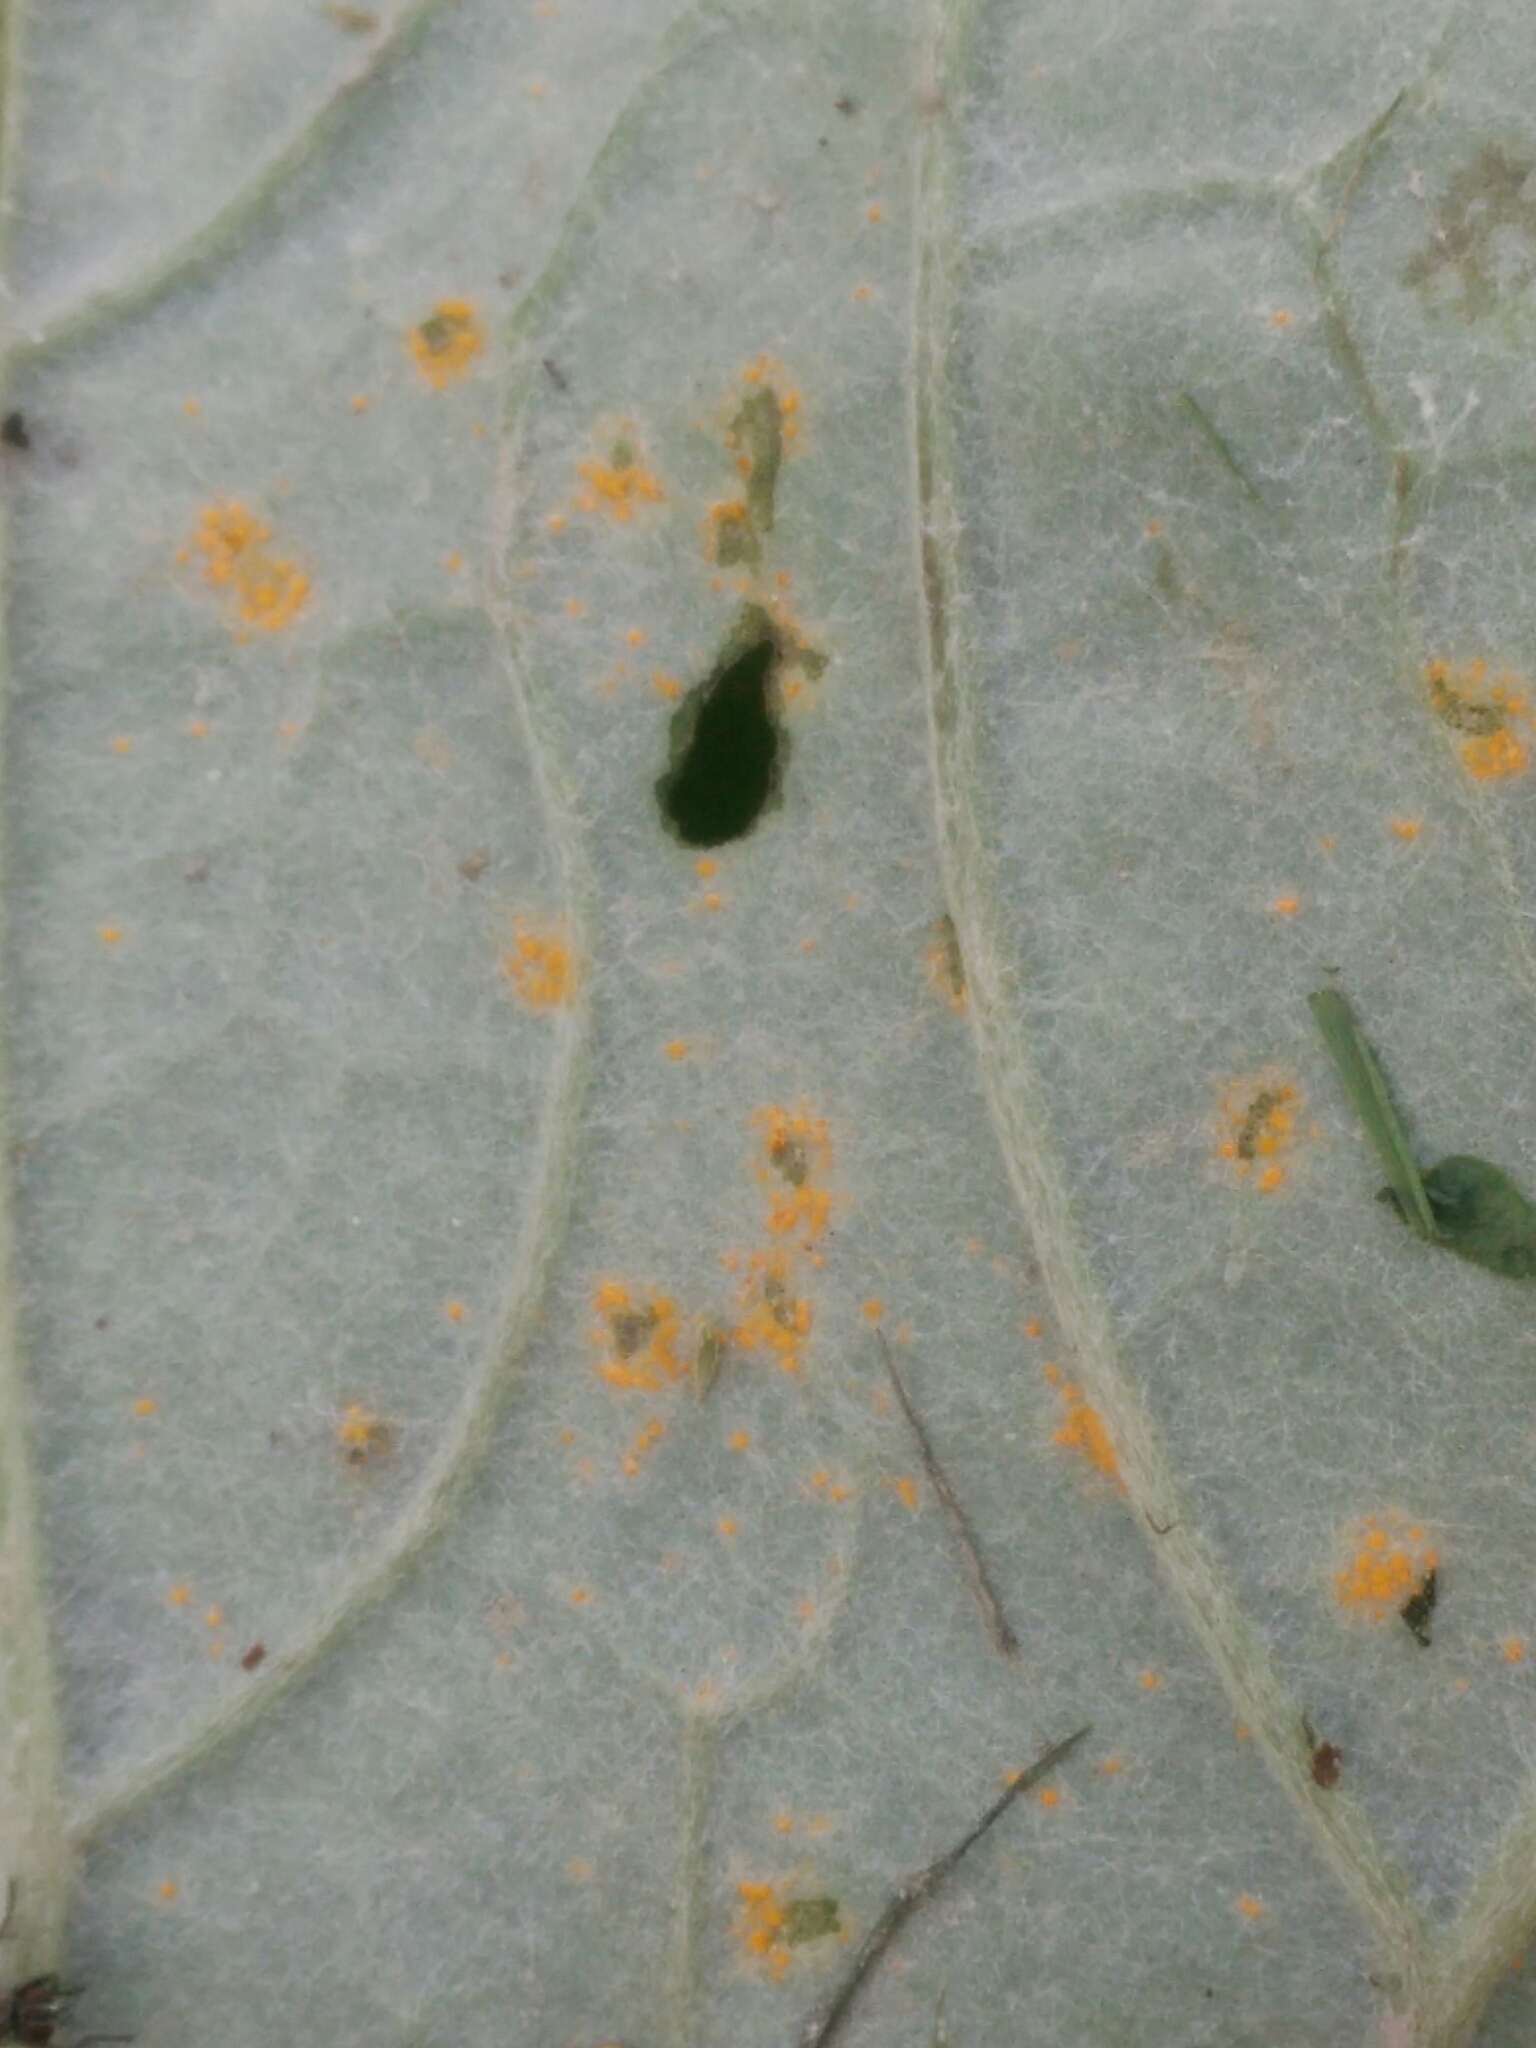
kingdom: Fungi
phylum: Basidiomycota
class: Pucciniomycetes
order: Pucciniales
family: Coleosporiaceae
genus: Coleosporium
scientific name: Coleosporium tussilaginis
